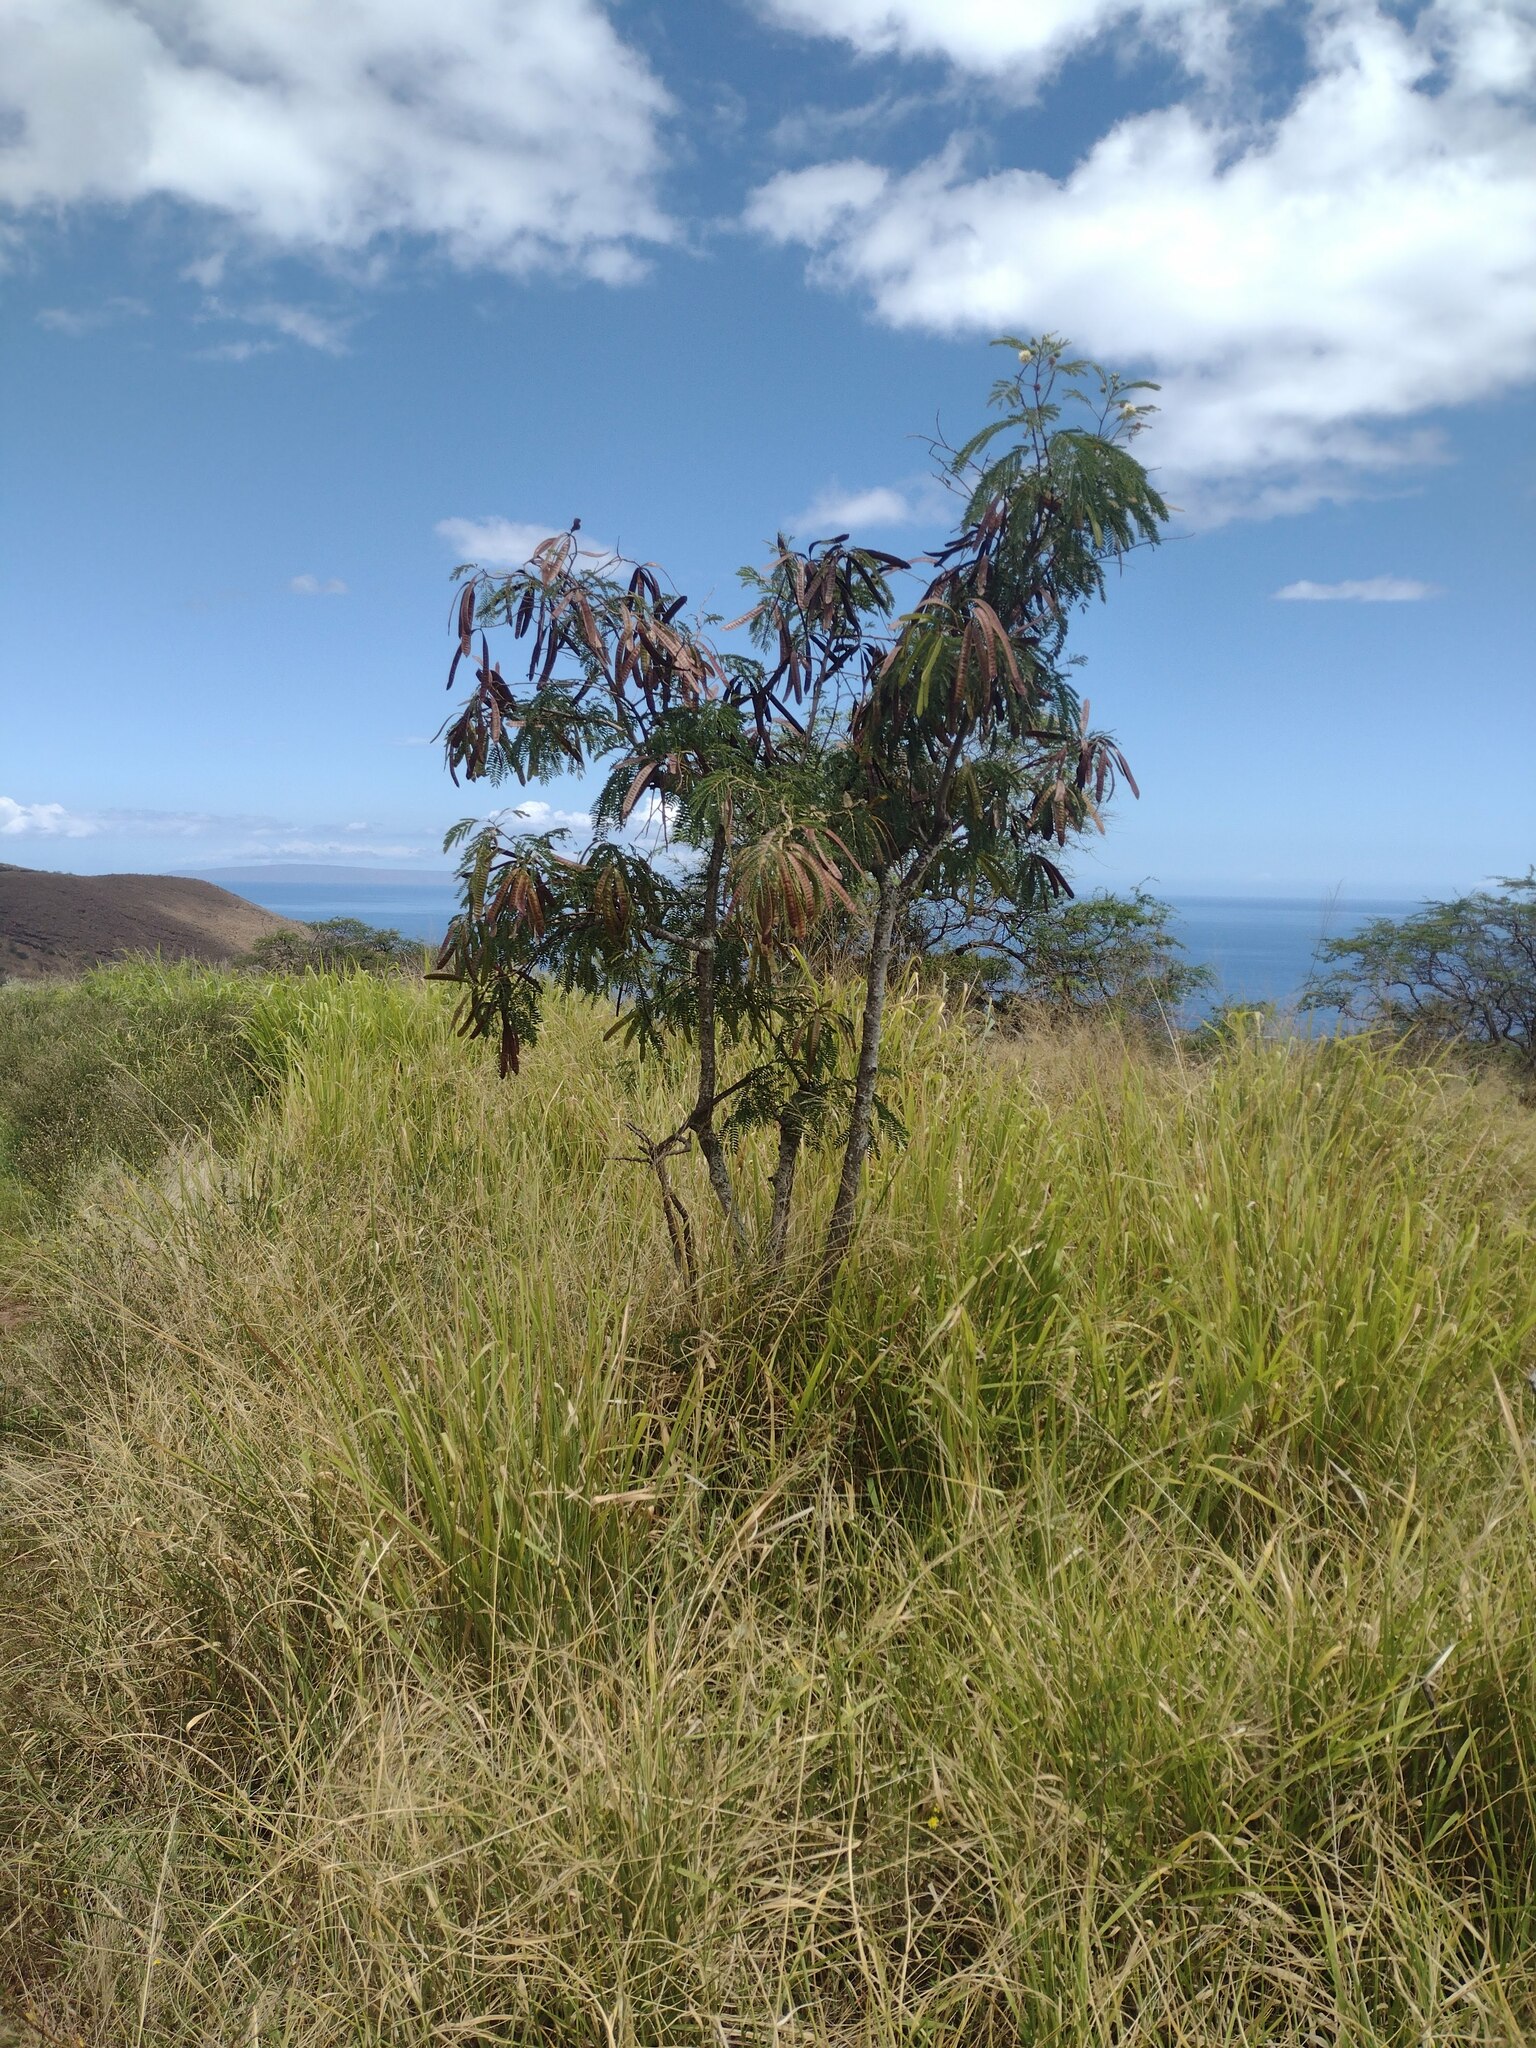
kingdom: Plantae
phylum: Tracheophyta
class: Magnoliopsida
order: Fabales
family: Fabaceae
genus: Leucaena
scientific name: Leucaena leucocephala
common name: White leadtree
